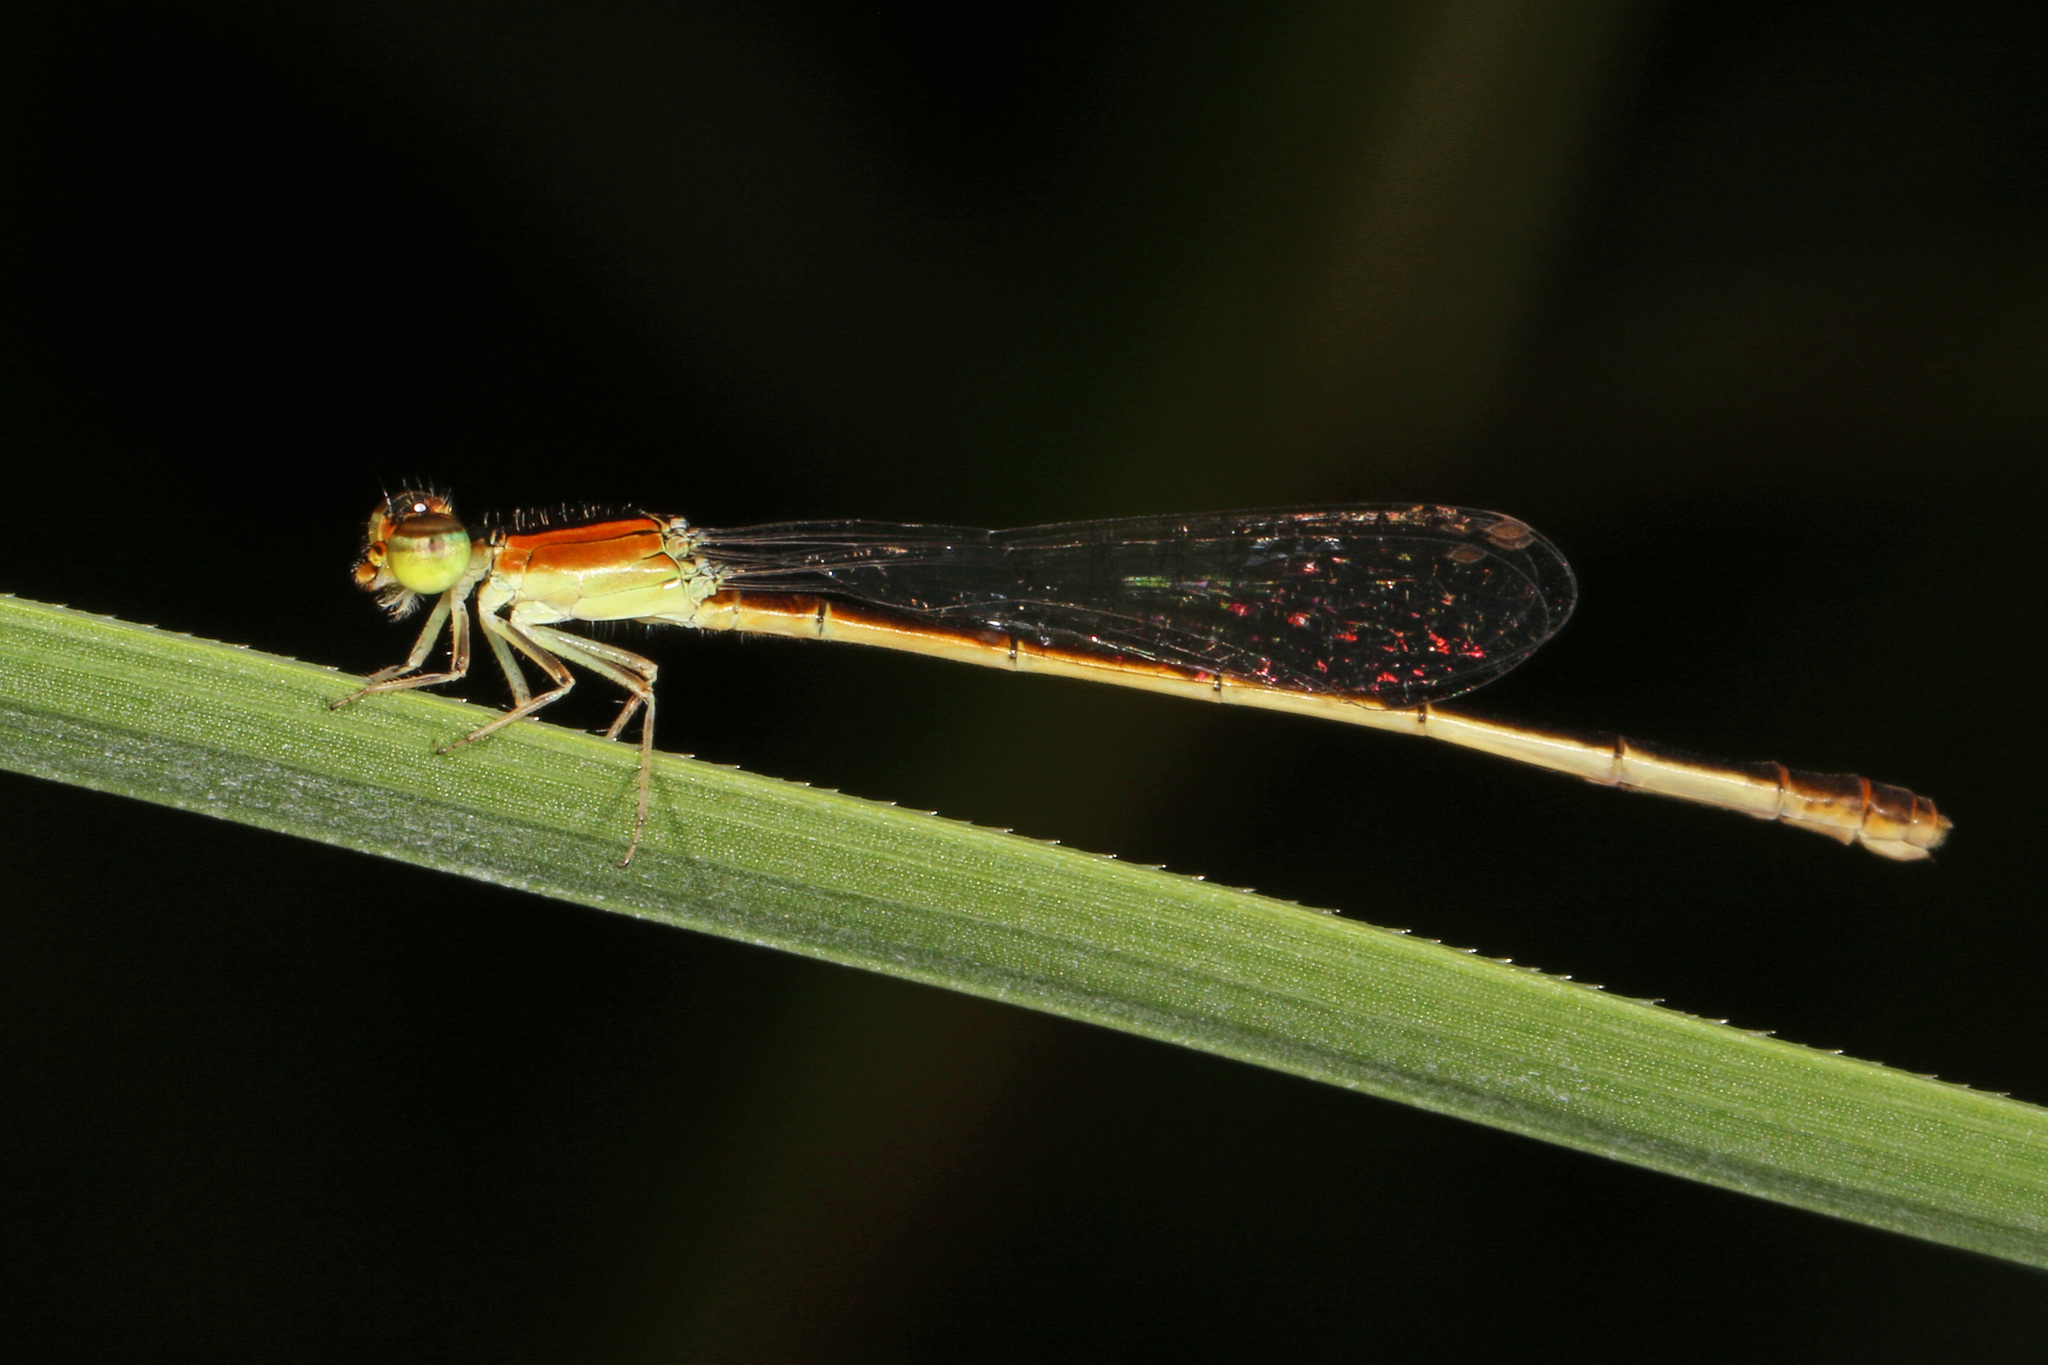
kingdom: Animalia
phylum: Arthropoda
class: Insecta
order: Odonata
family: Coenagrionidae
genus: Ischnura
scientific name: Ischnura hastata
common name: Citrine forktail
